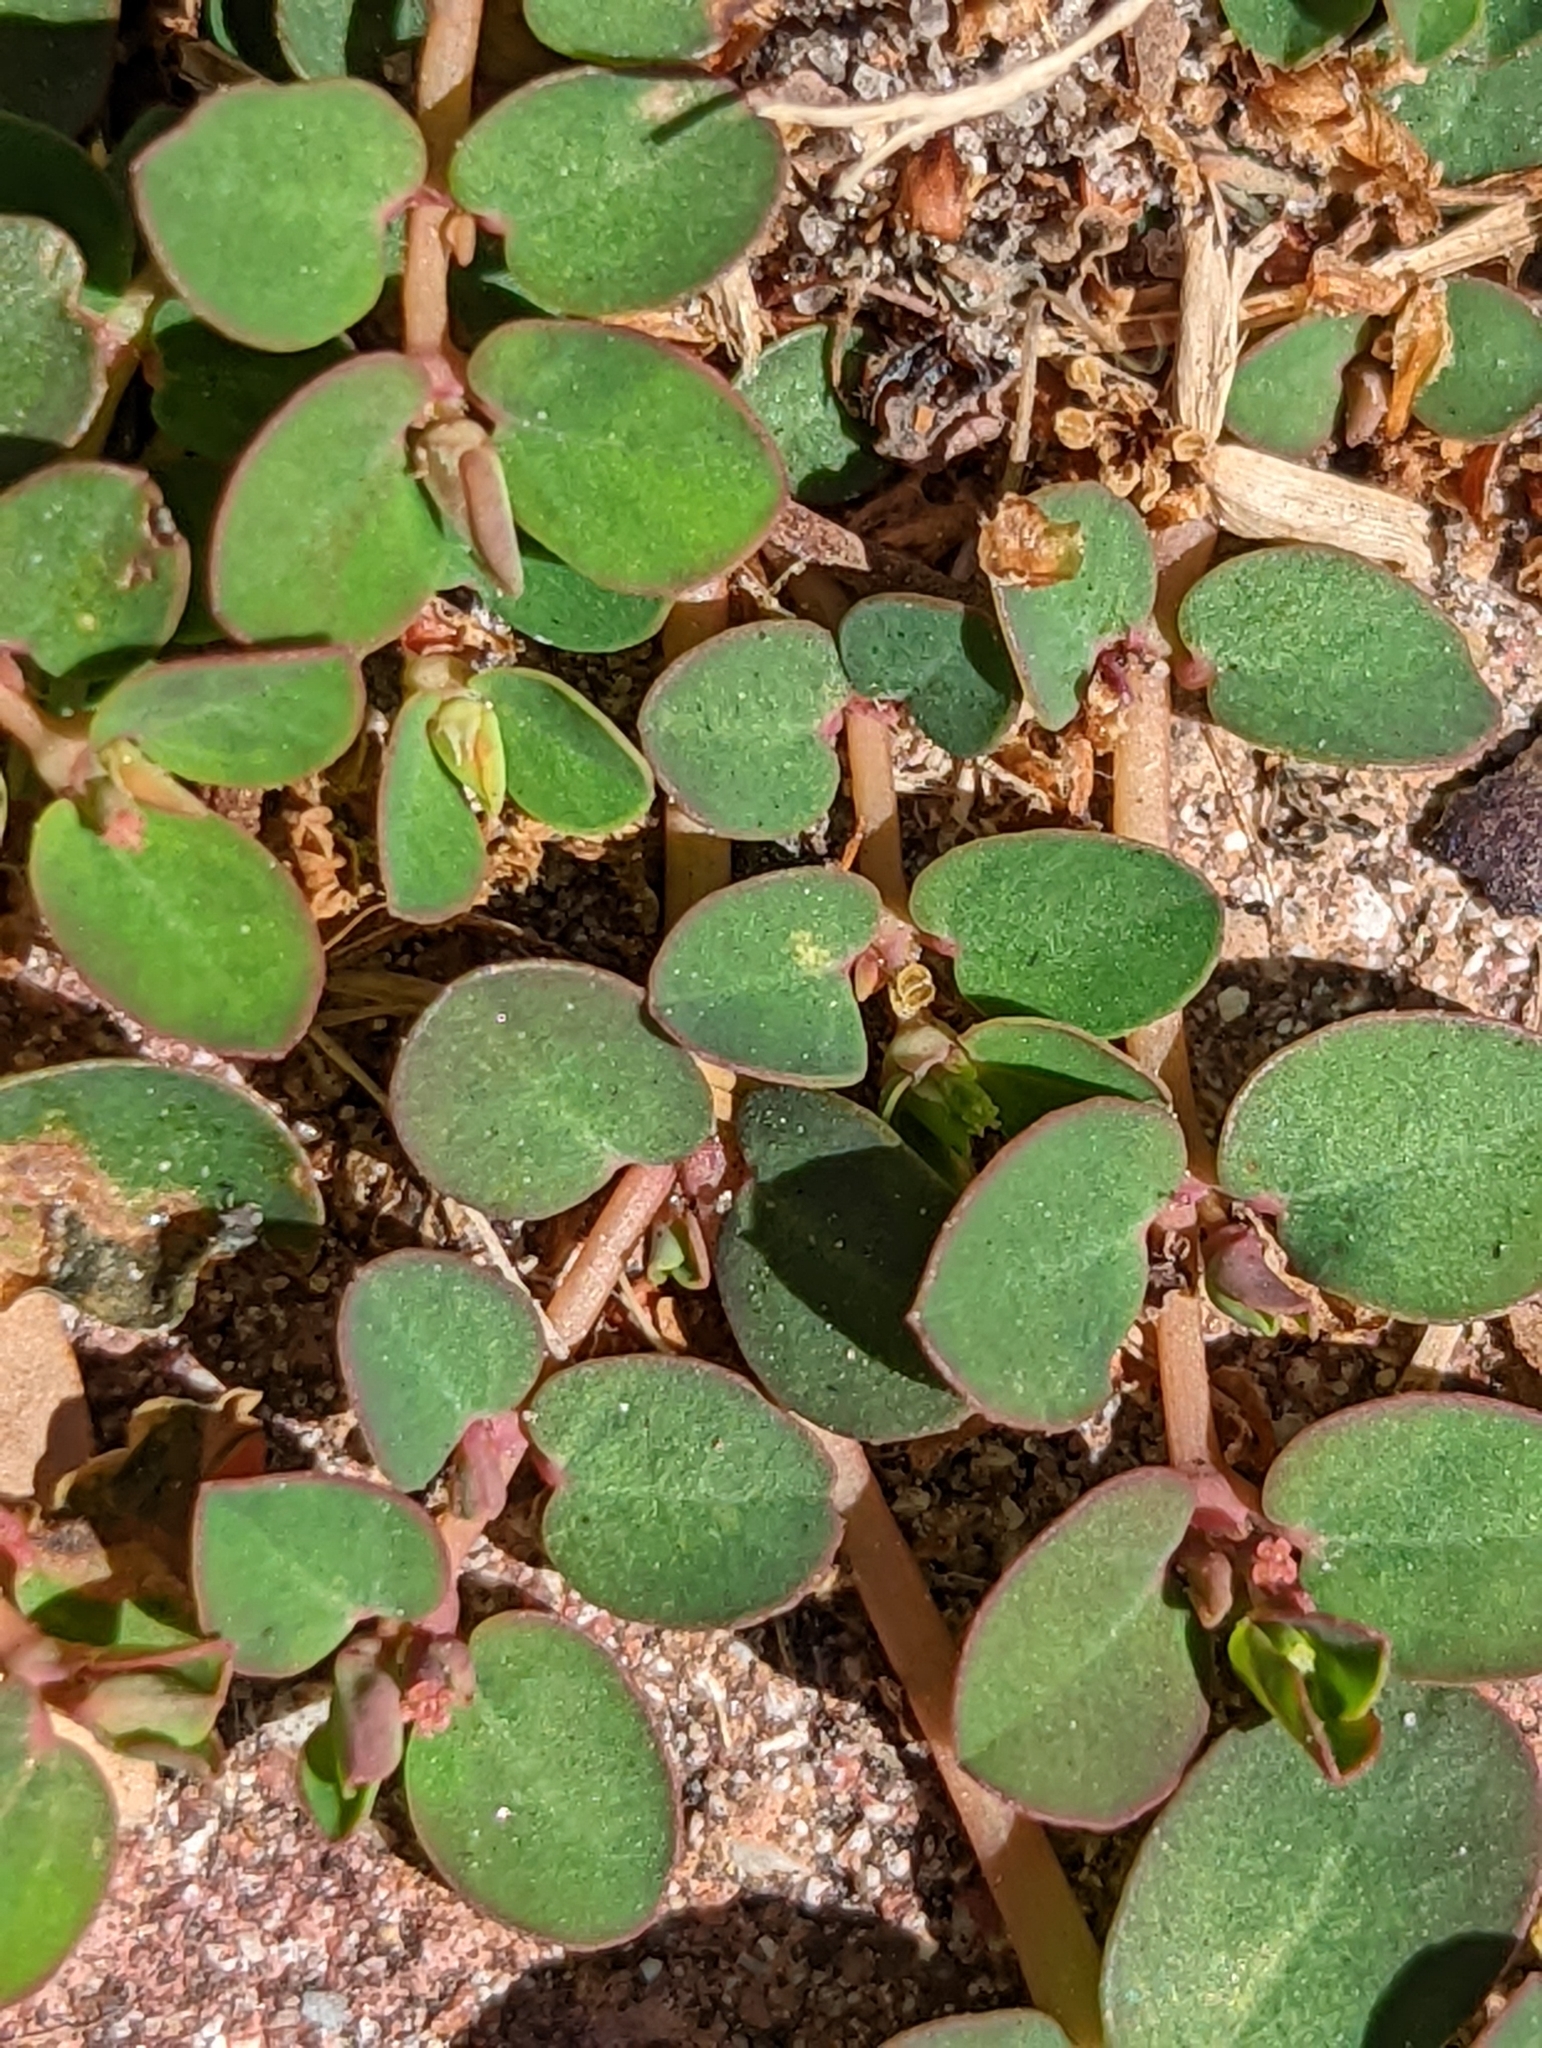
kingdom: Plantae
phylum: Tracheophyta
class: Magnoliopsida
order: Malpighiales
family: Euphorbiaceae
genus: Euphorbia
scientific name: Euphorbia blodgettii
